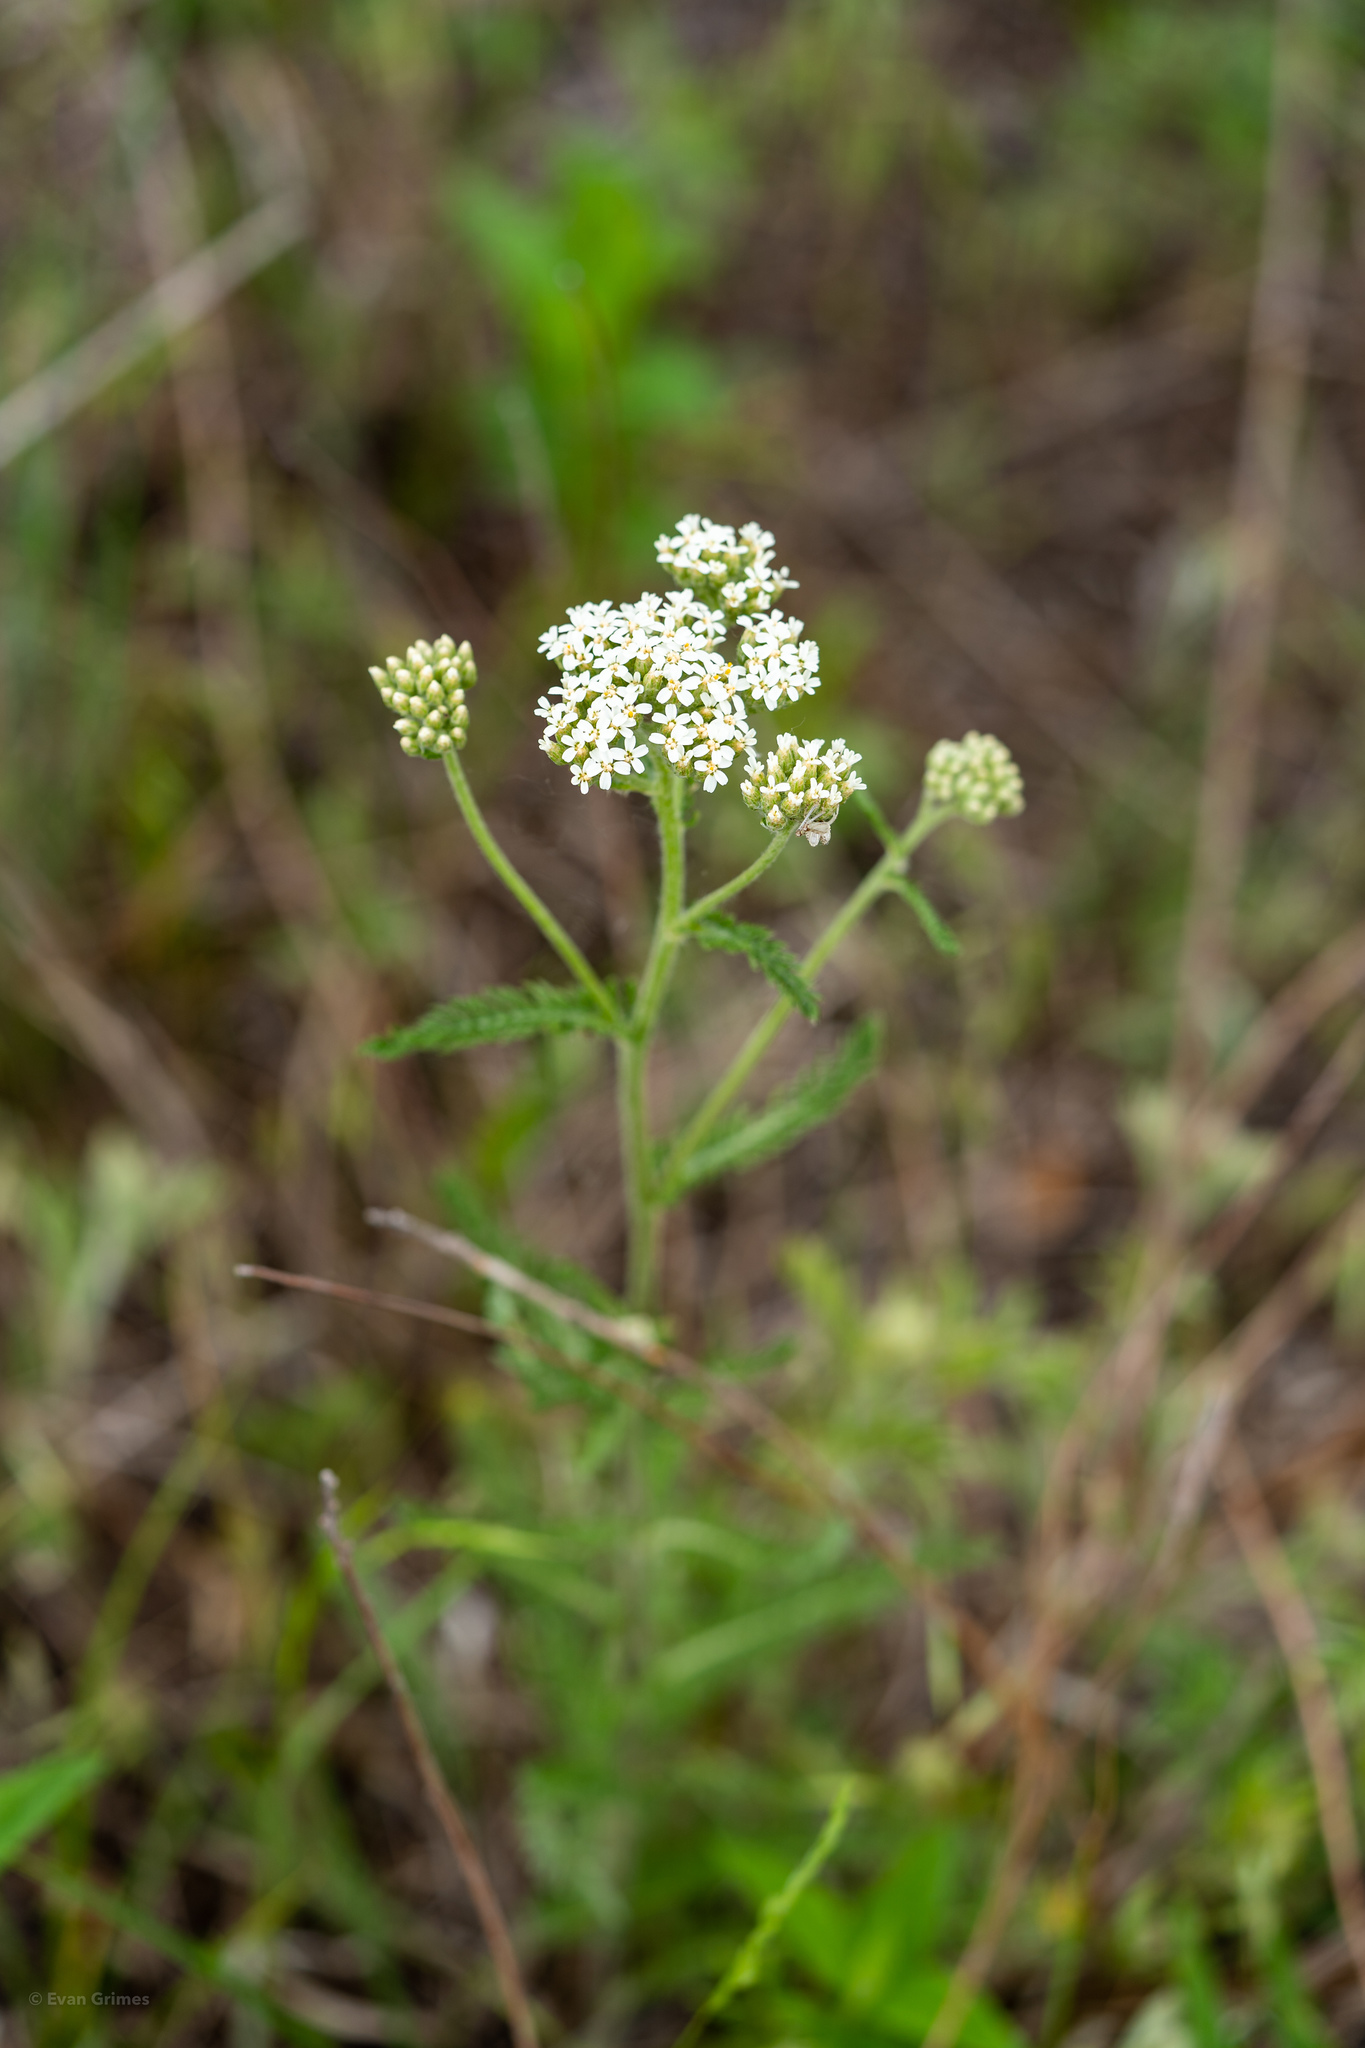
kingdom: Plantae
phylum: Tracheophyta
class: Magnoliopsida
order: Asterales
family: Asteraceae
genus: Achillea
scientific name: Achillea millefolium
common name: Yarrow
